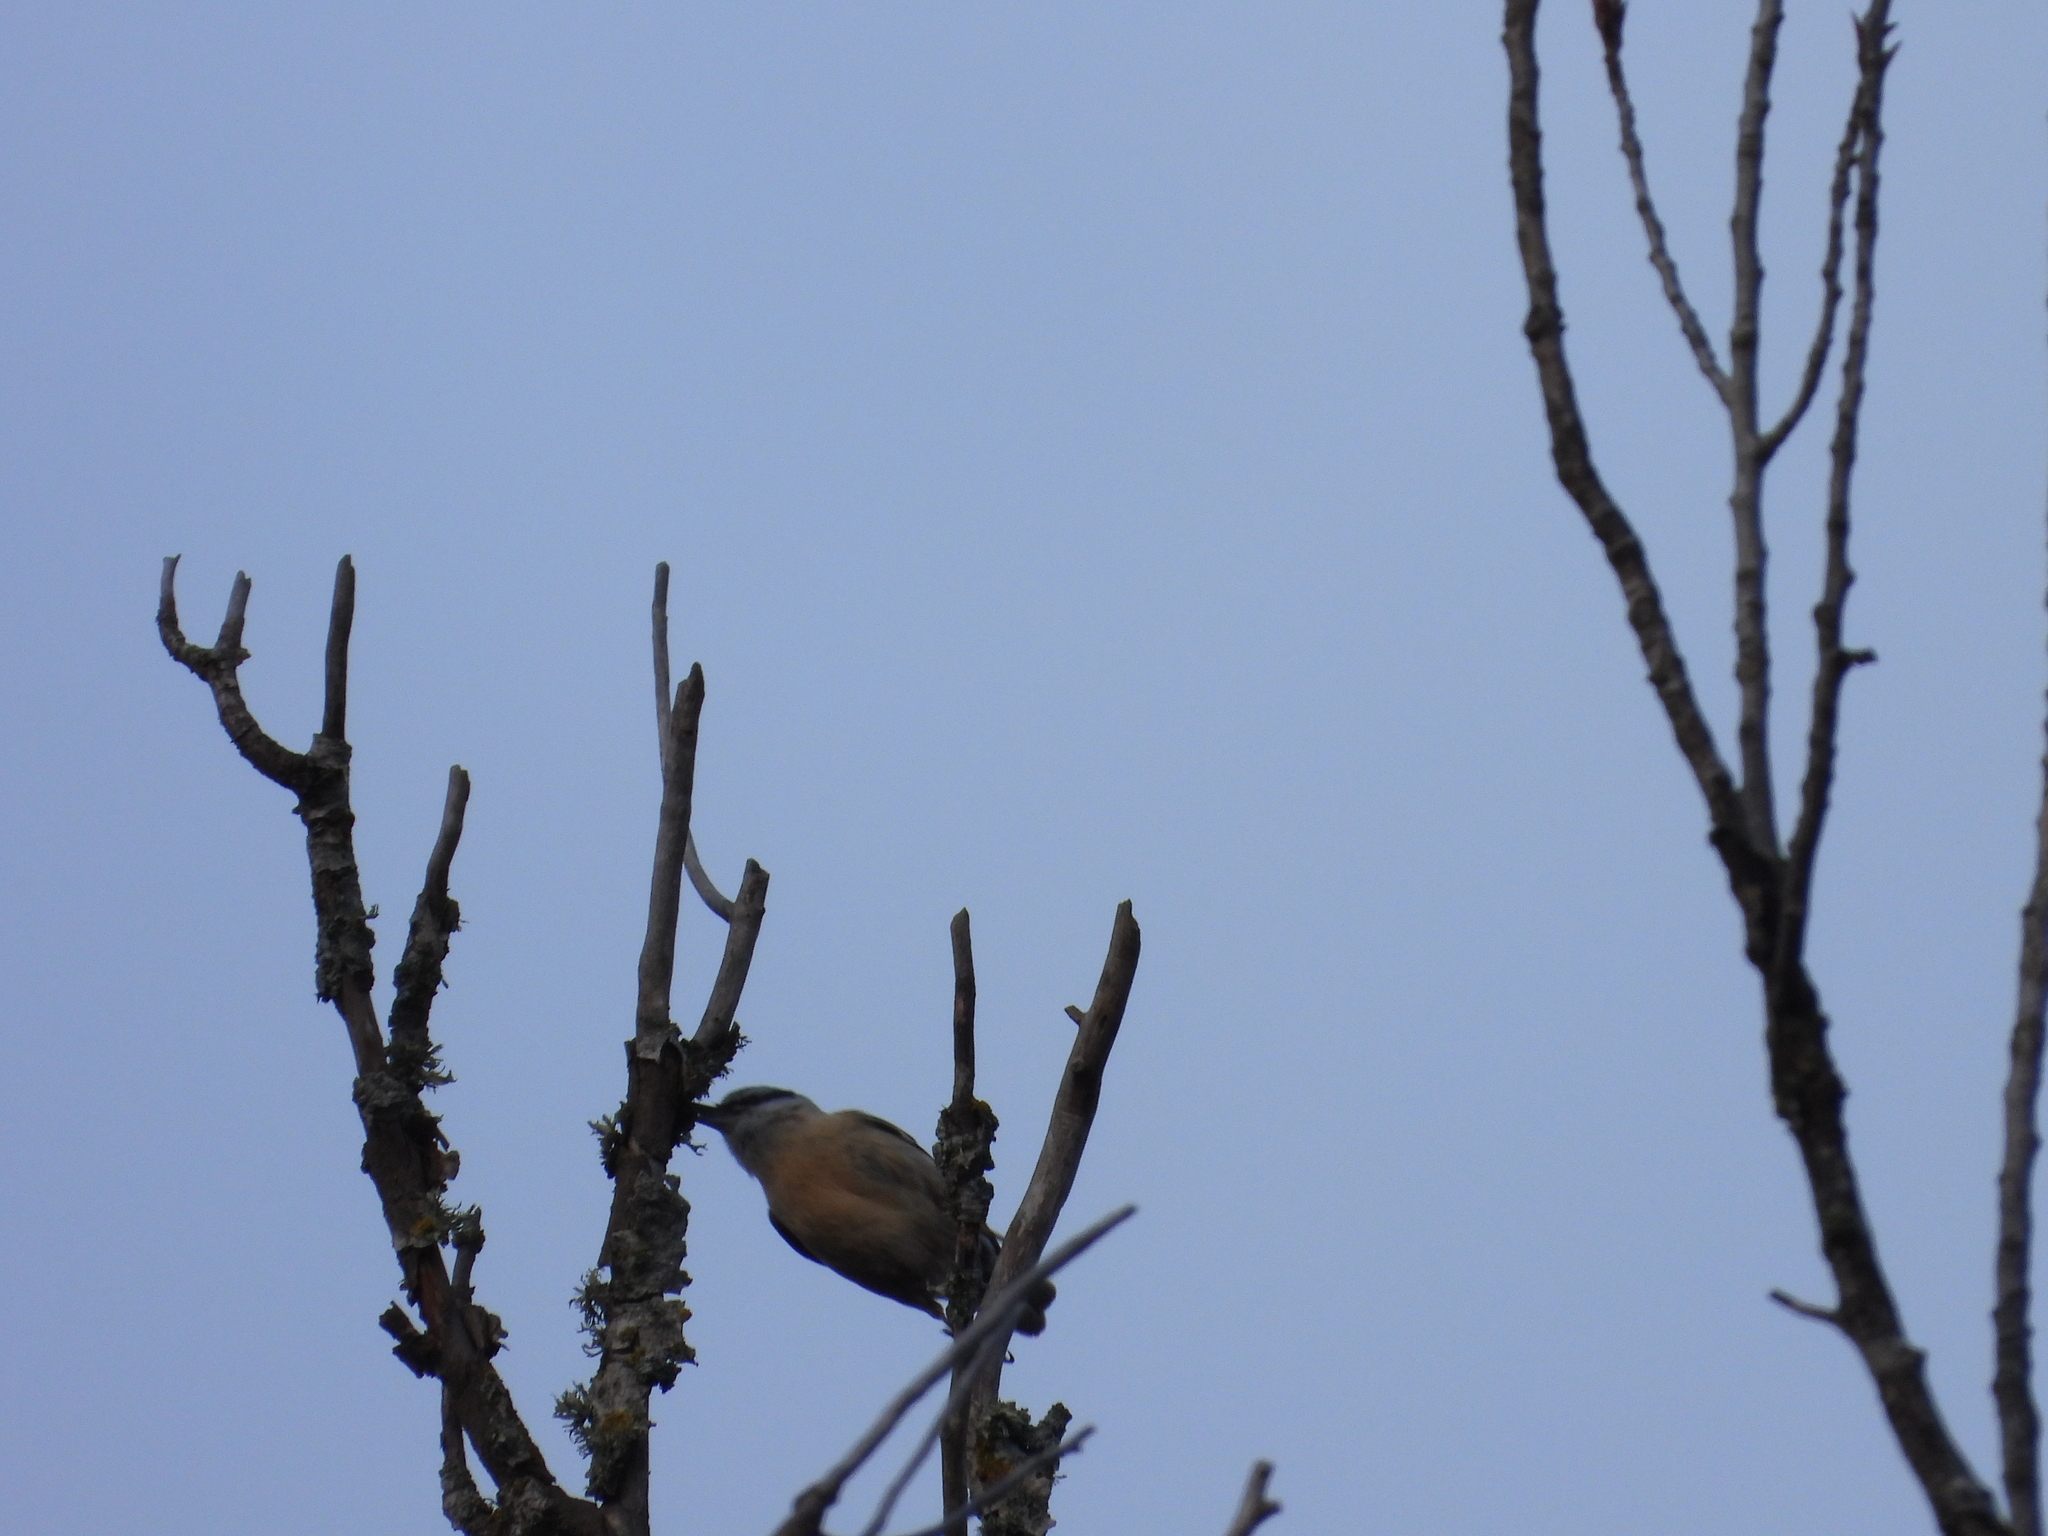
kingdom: Animalia
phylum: Chordata
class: Aves
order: Passeriformes
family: Sittidae
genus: Sitta
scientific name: Sitta europaea
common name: Eurasian nuthatch
